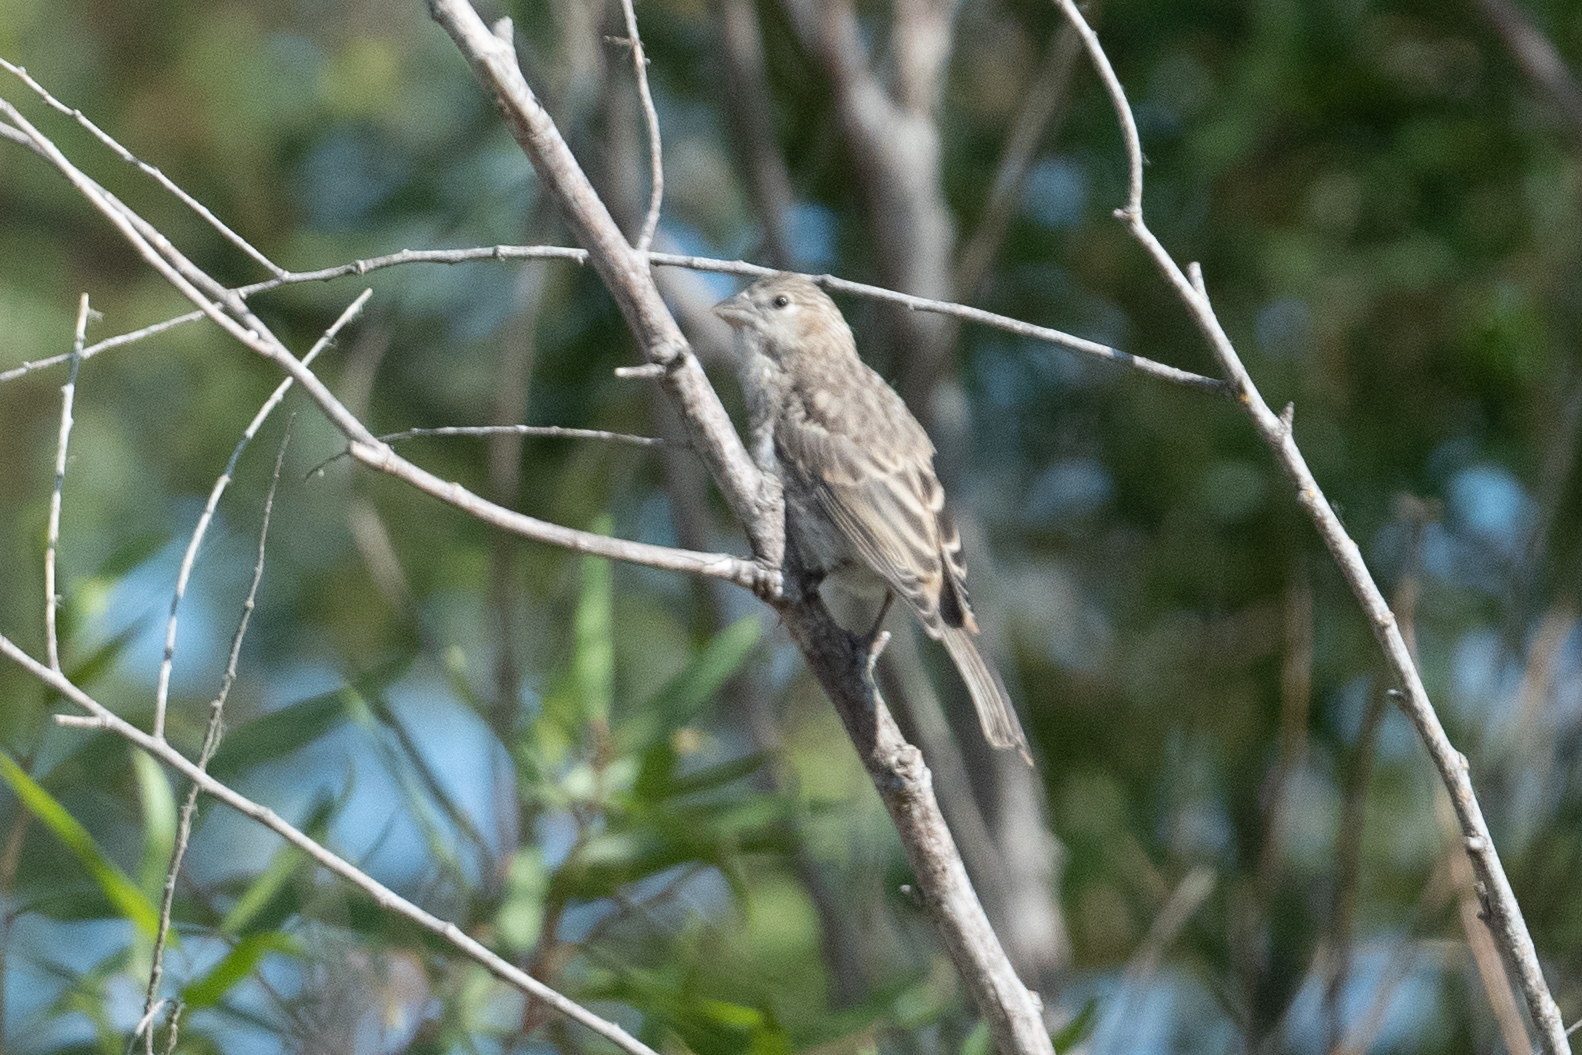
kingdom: Animalia
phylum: Chordata
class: Aves
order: Passeriformes
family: Fringillidae
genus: Haemorhous
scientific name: Haemorhous mexicanus
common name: House finch
